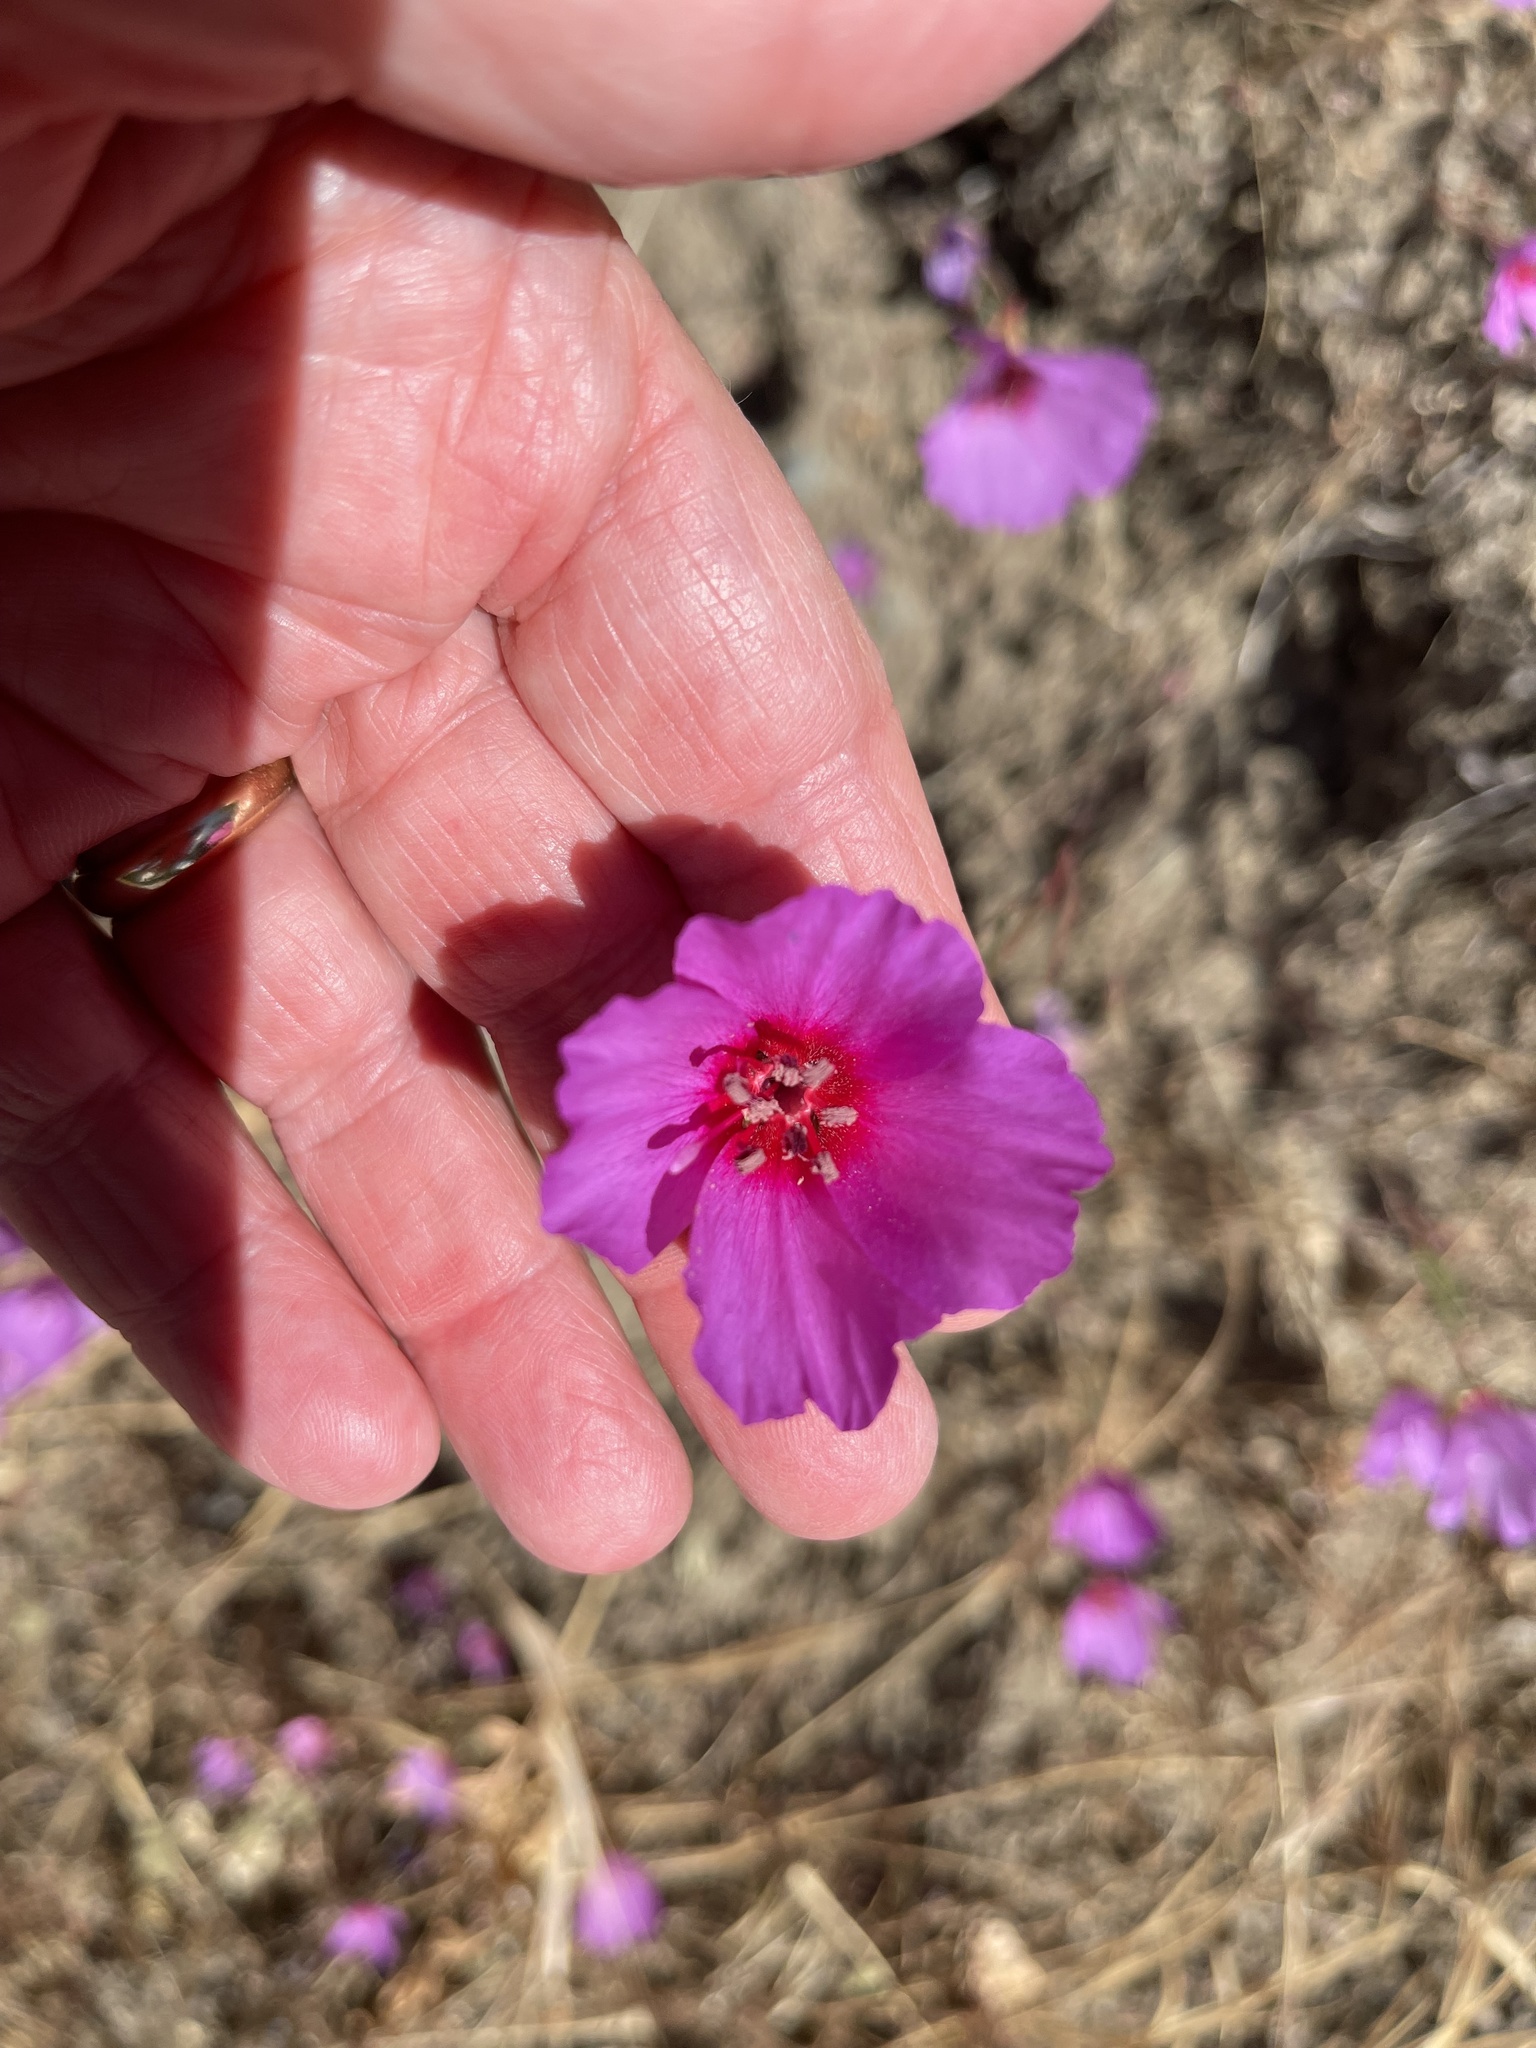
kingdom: Plantae
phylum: Tracheophyta
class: Magnoliopsida
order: Myrtales
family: Onagraceae
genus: Clarkia
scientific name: Clarkia rubicunda
